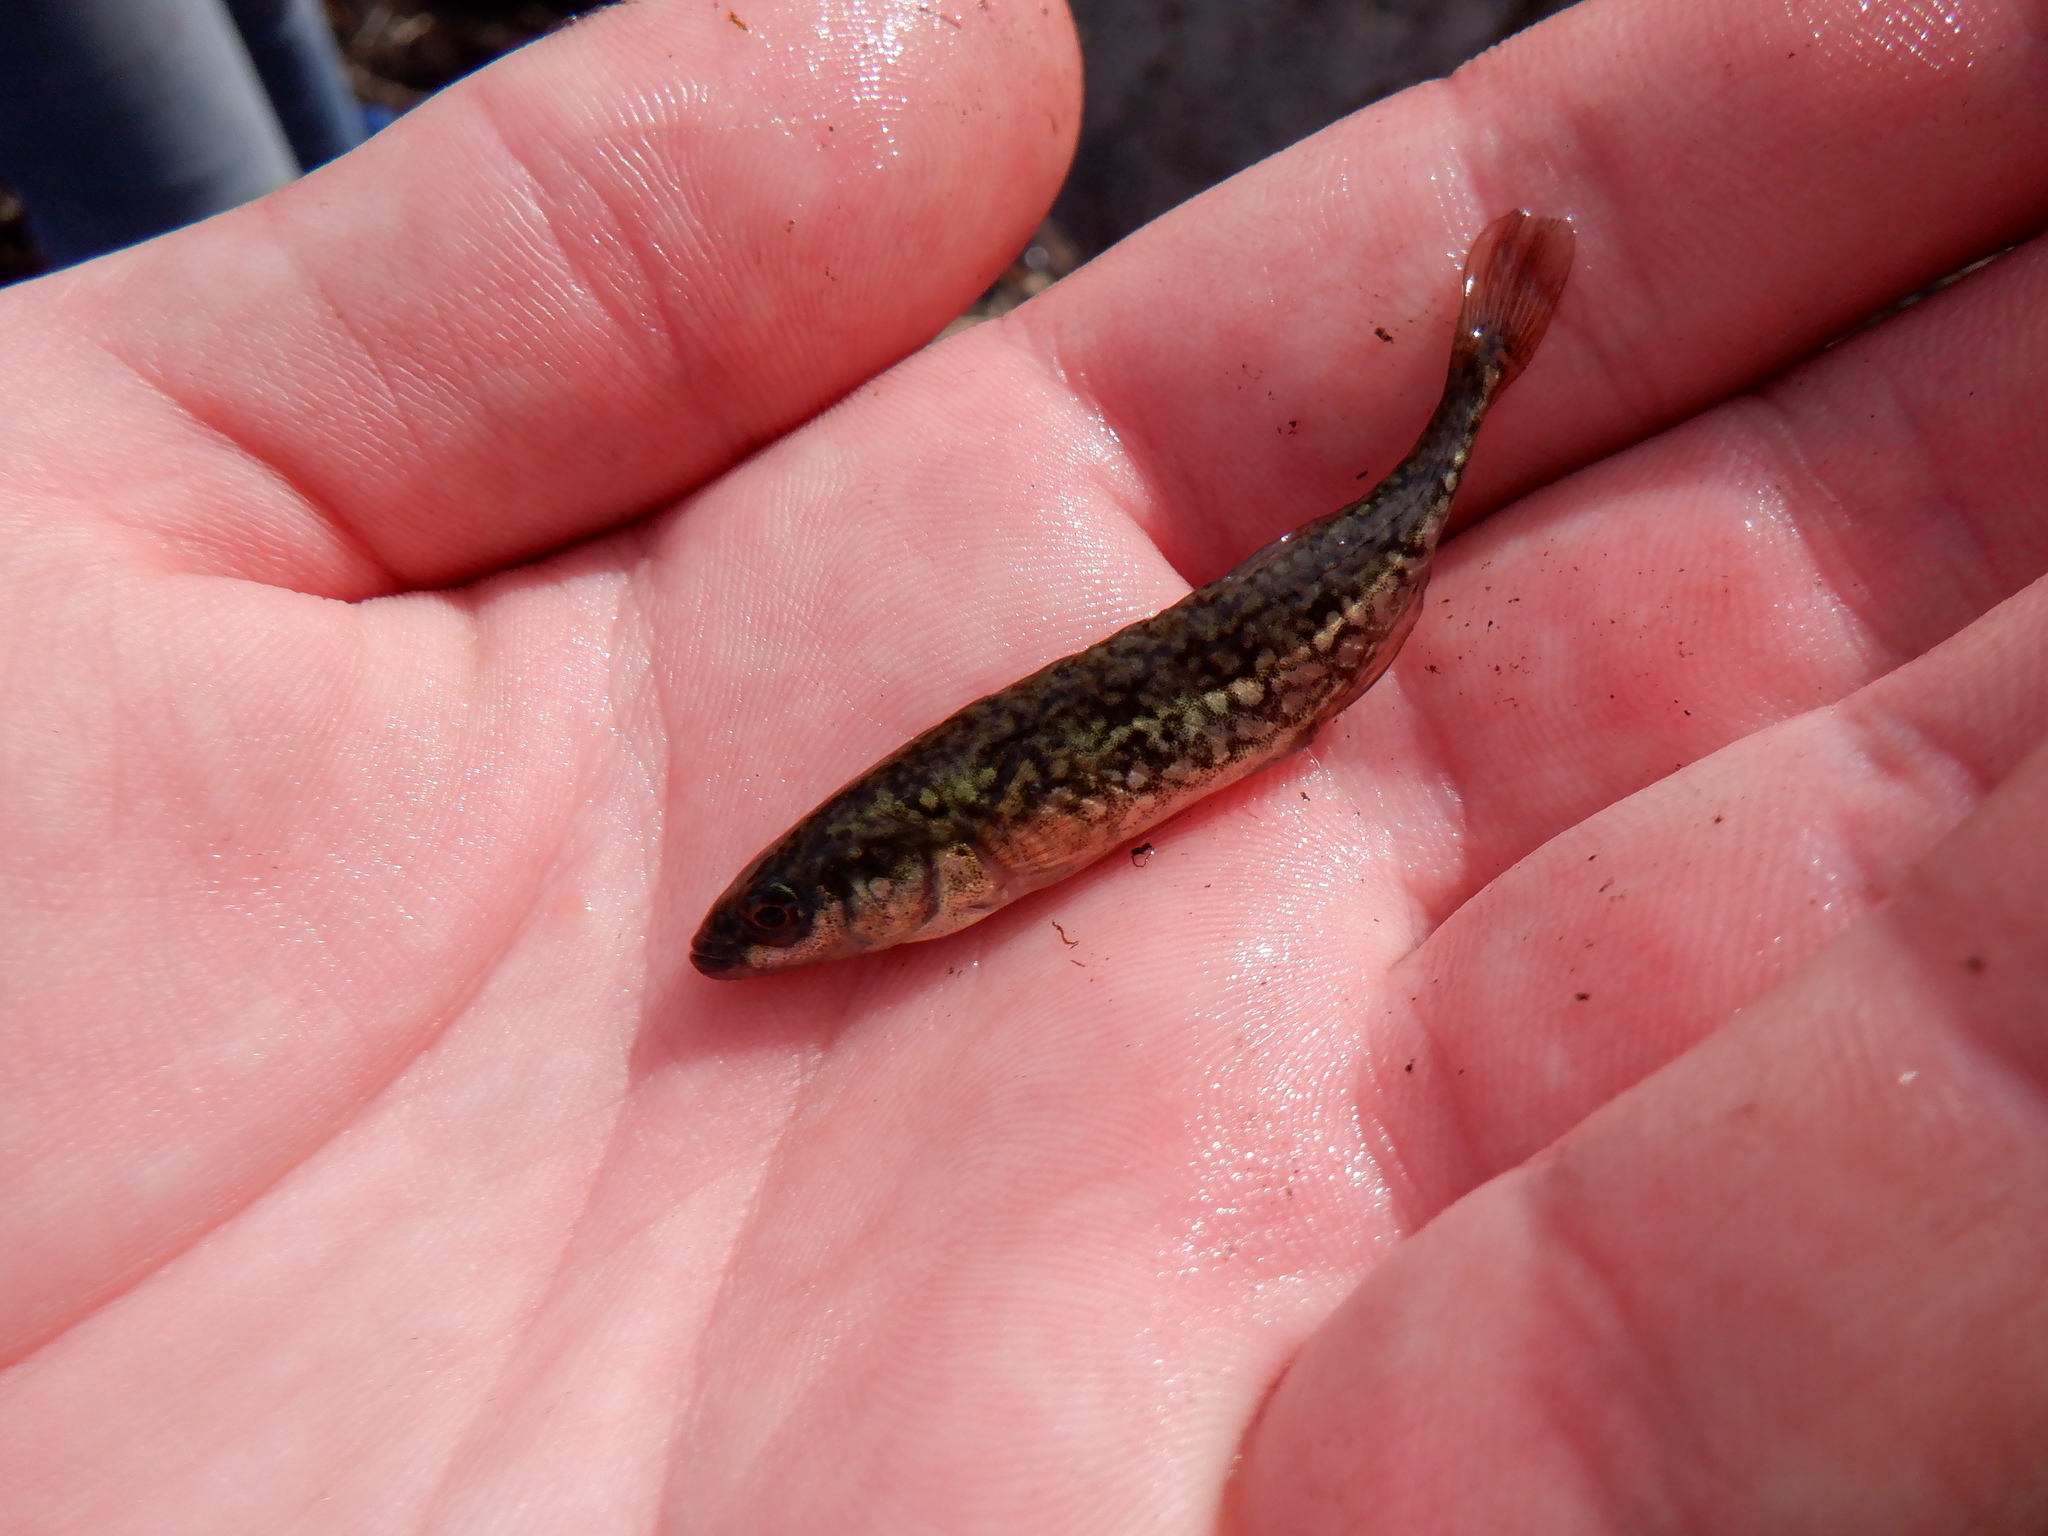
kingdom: Animalia
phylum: Chordata
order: Gasterosteiformes
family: Gasterosteidae
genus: Culaea
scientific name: Culaea inconstans
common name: Brook stickleback
